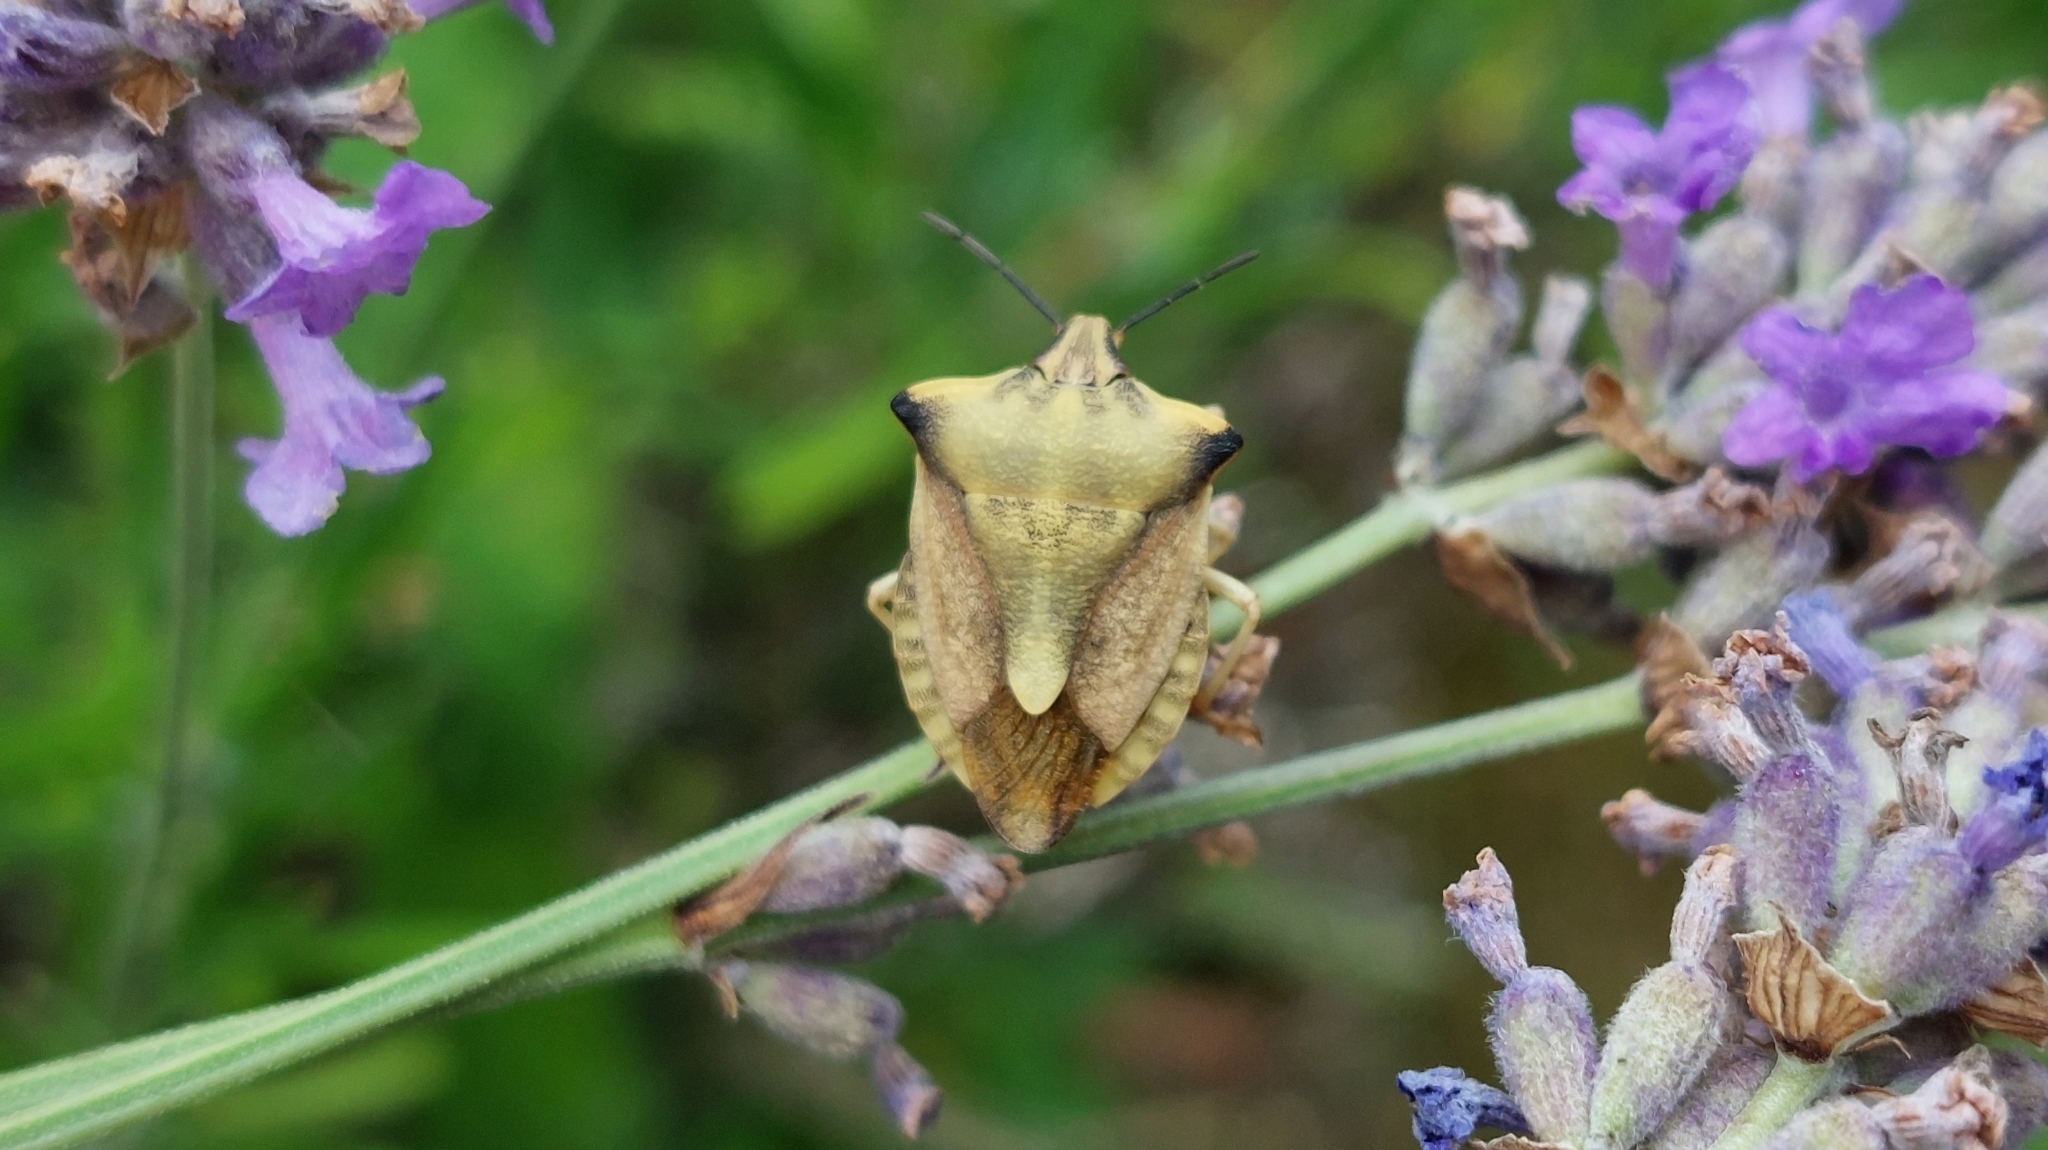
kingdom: Animalia
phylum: Arthropoda
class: Insecta
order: Hemiptera
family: Pentatomidae
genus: Carpocoris
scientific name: Carpocoris fuscispinus
